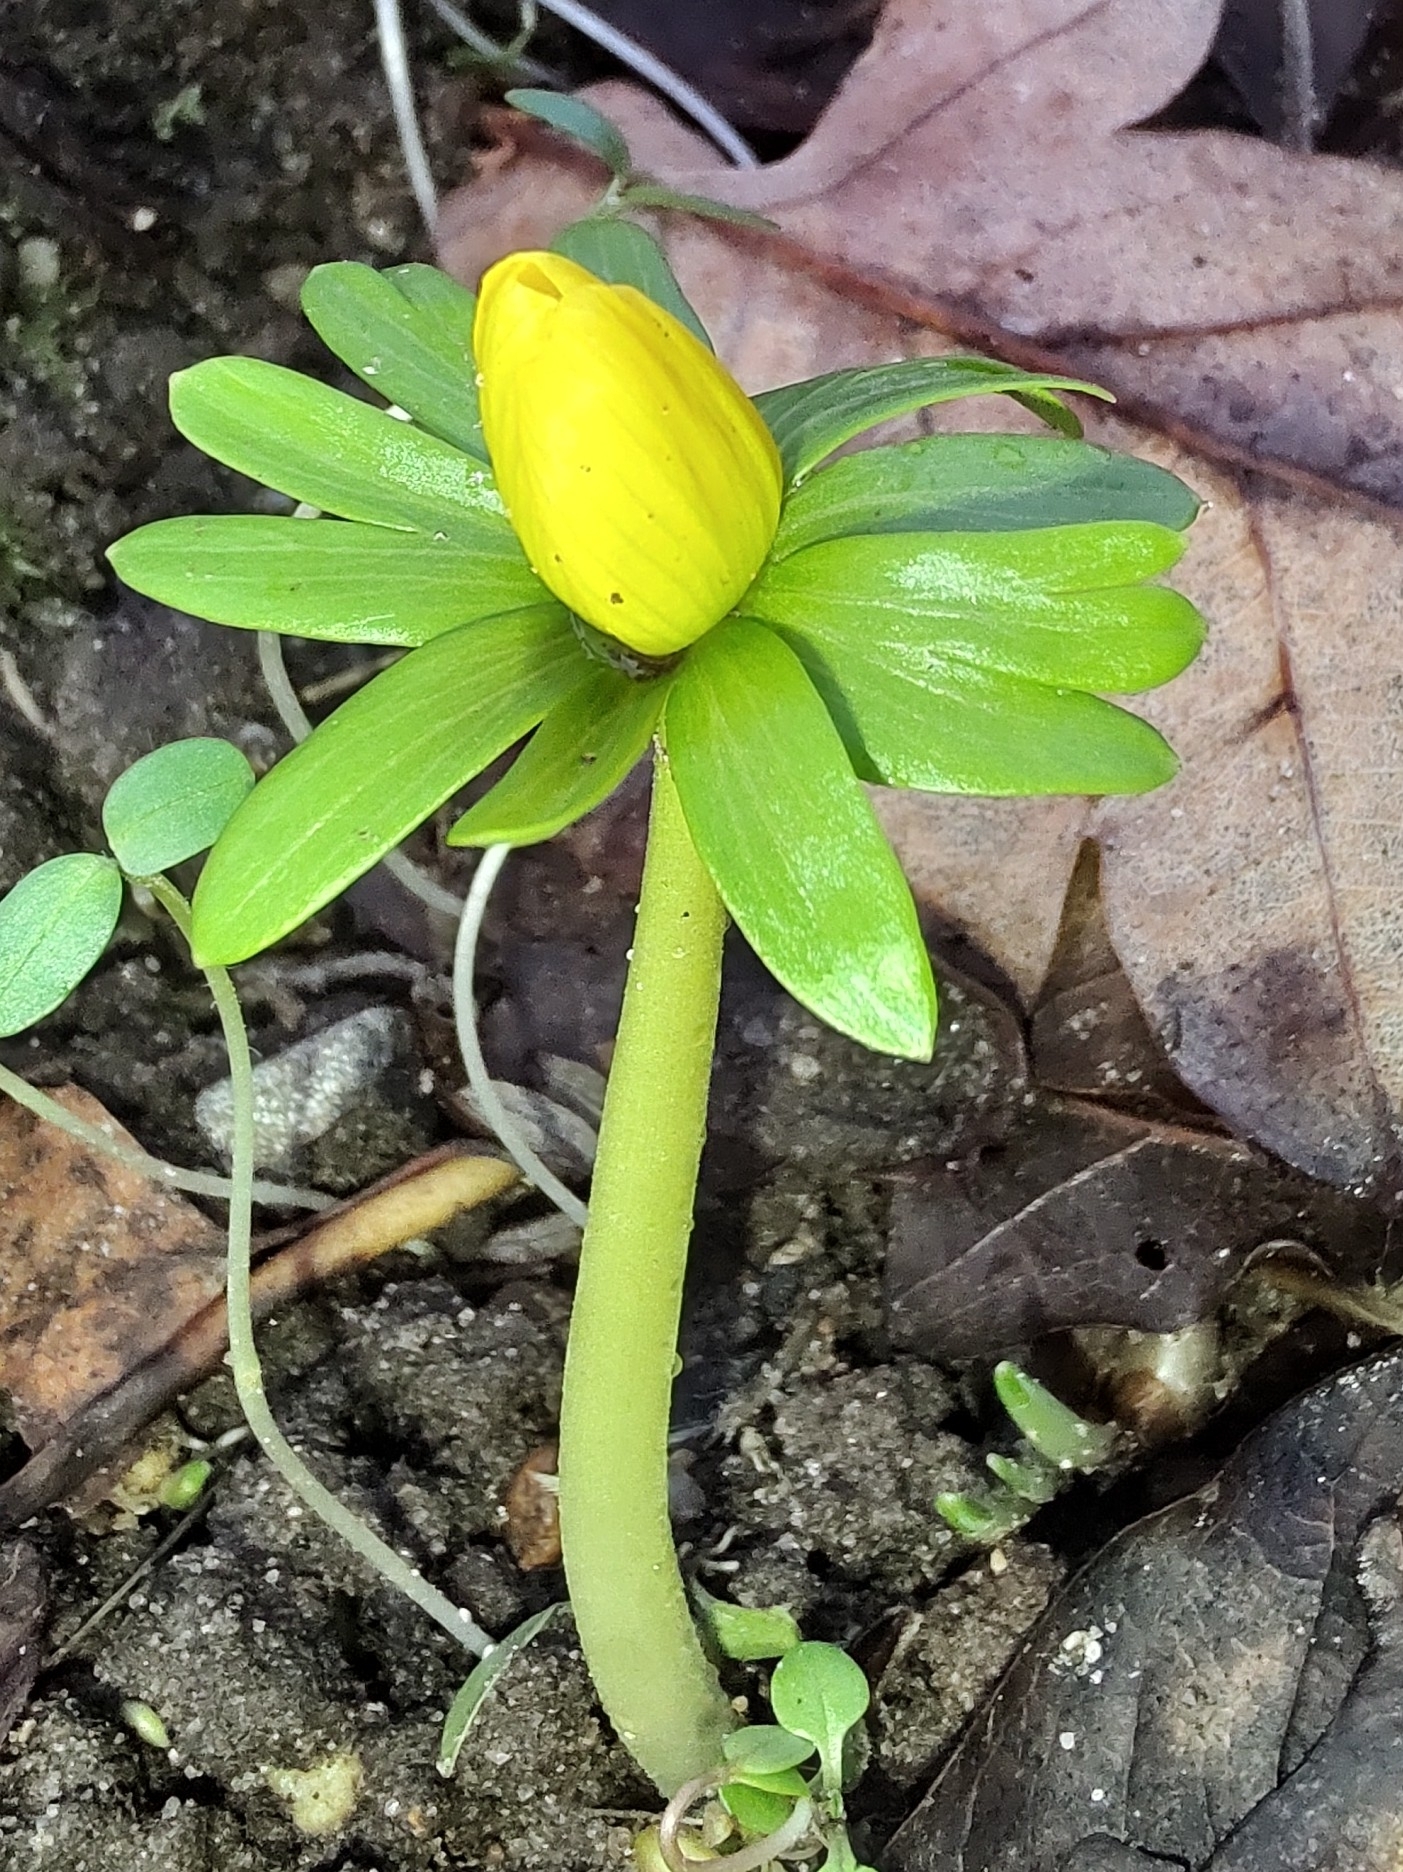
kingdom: Plantae
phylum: Tracheophyta
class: Magnoliopsida
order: Ranunculales
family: Ranunculaceae
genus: Eranthis
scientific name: Eranthis hyemalis
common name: Winter aconite
